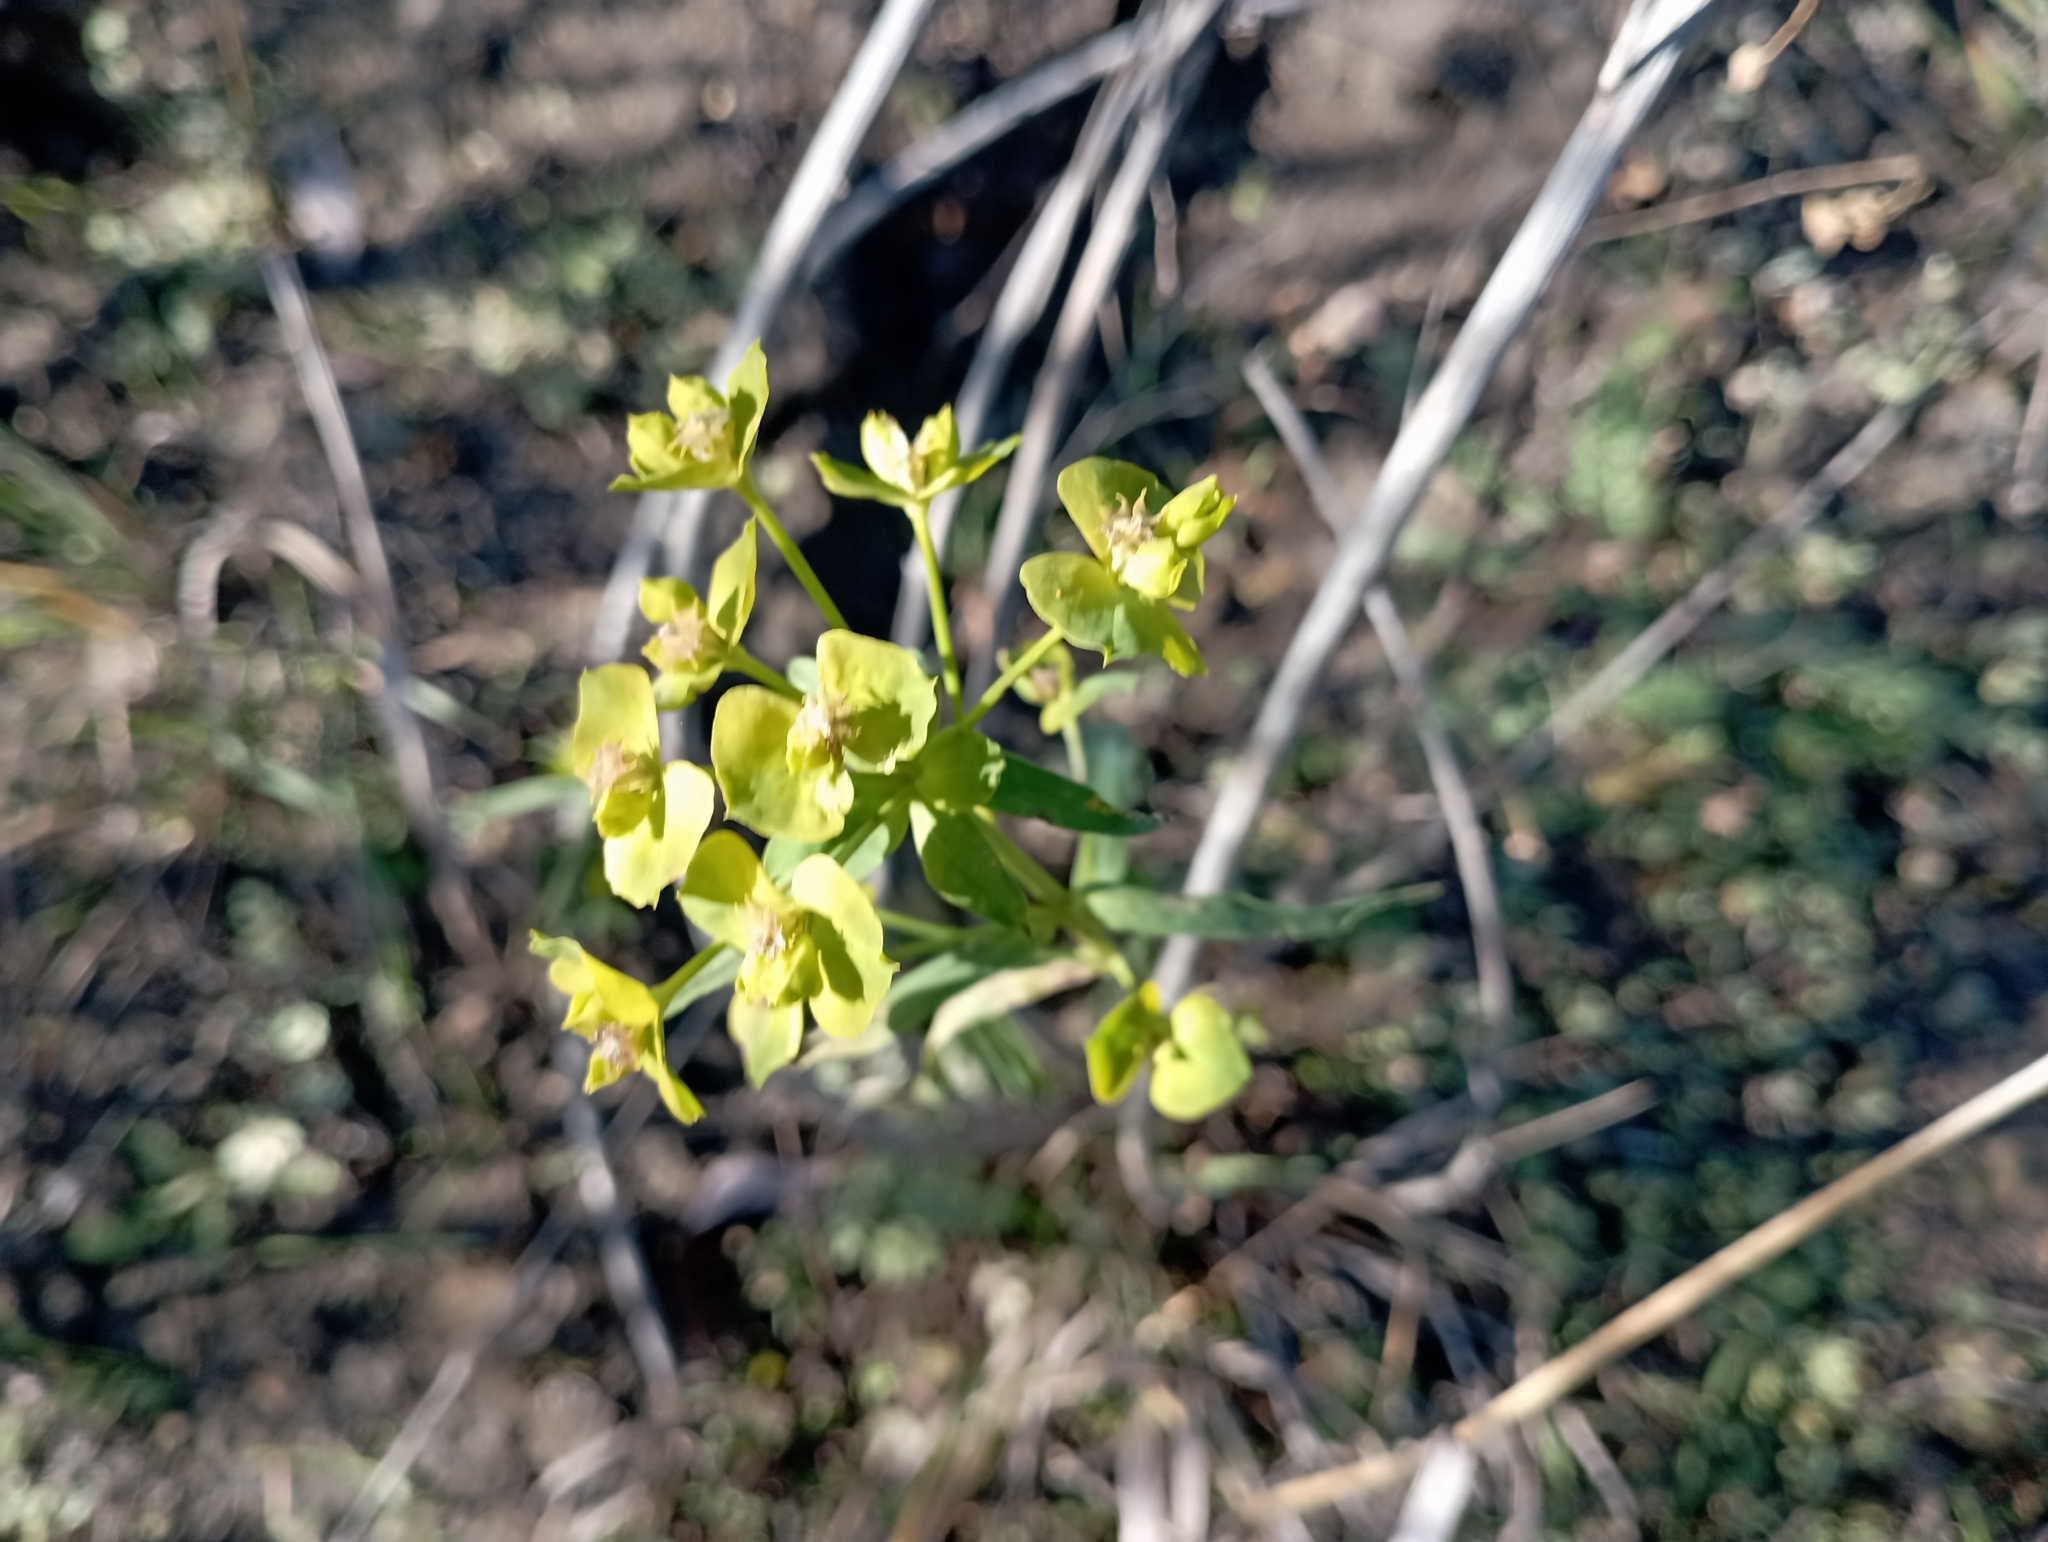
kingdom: Plantae
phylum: Tracheophyta
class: Magnoliopsida
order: Malpighiales
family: Euphorbiaceae
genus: Euphorbia
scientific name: Euphorbia virgata
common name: Leafy spurge
